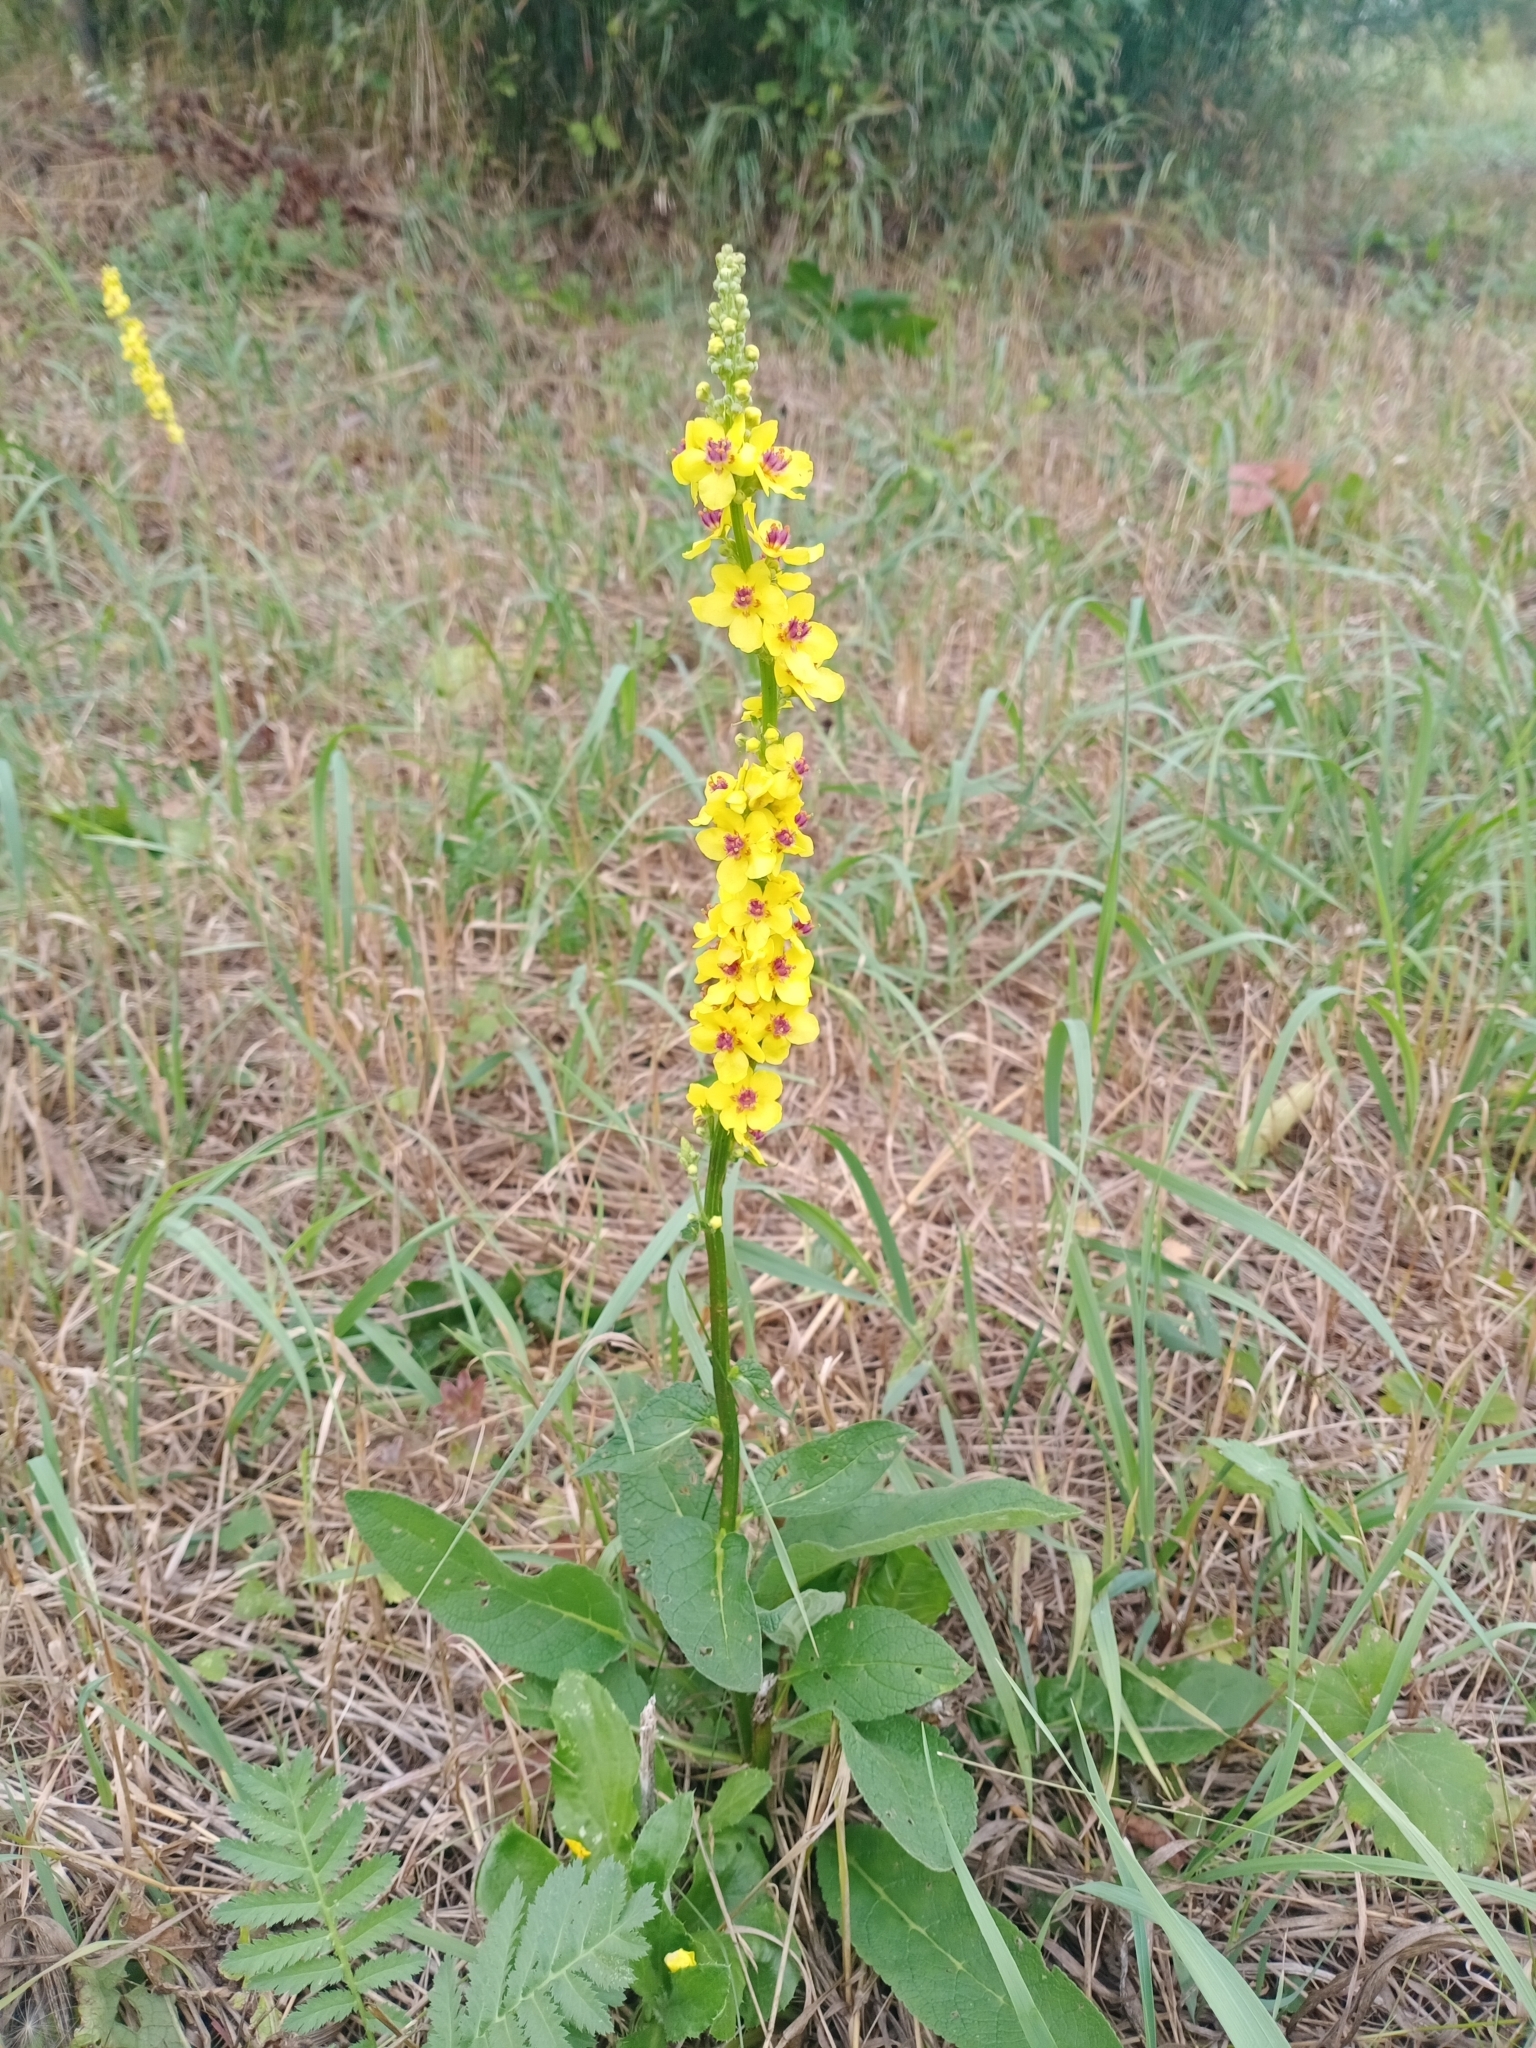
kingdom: Plantae
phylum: Tracheophyta
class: Magnoliopsida
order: Lamiales
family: Scrophulariaceae
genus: Verbascum
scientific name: Verbascum nigrum
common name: Dark mullein
